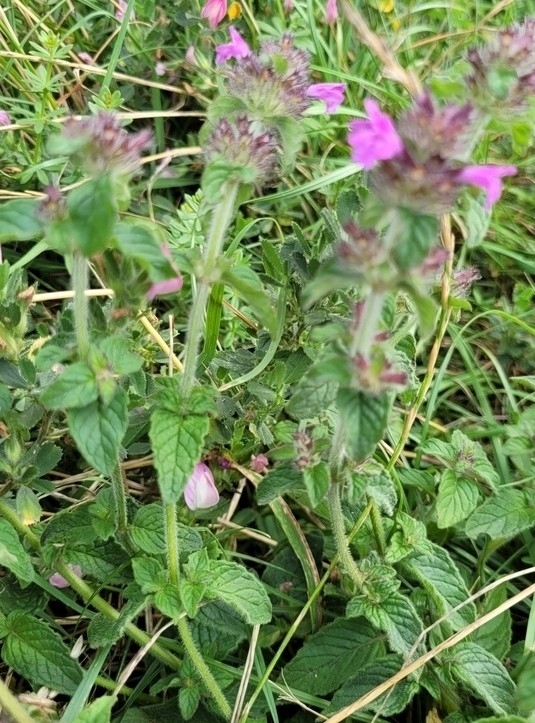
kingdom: Plantae
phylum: Tracheophyta
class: Magnoliopsida
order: Lamiales
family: Lamiaceae
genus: Clinopodium
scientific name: Clinopodium vulgare
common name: Wild basil
